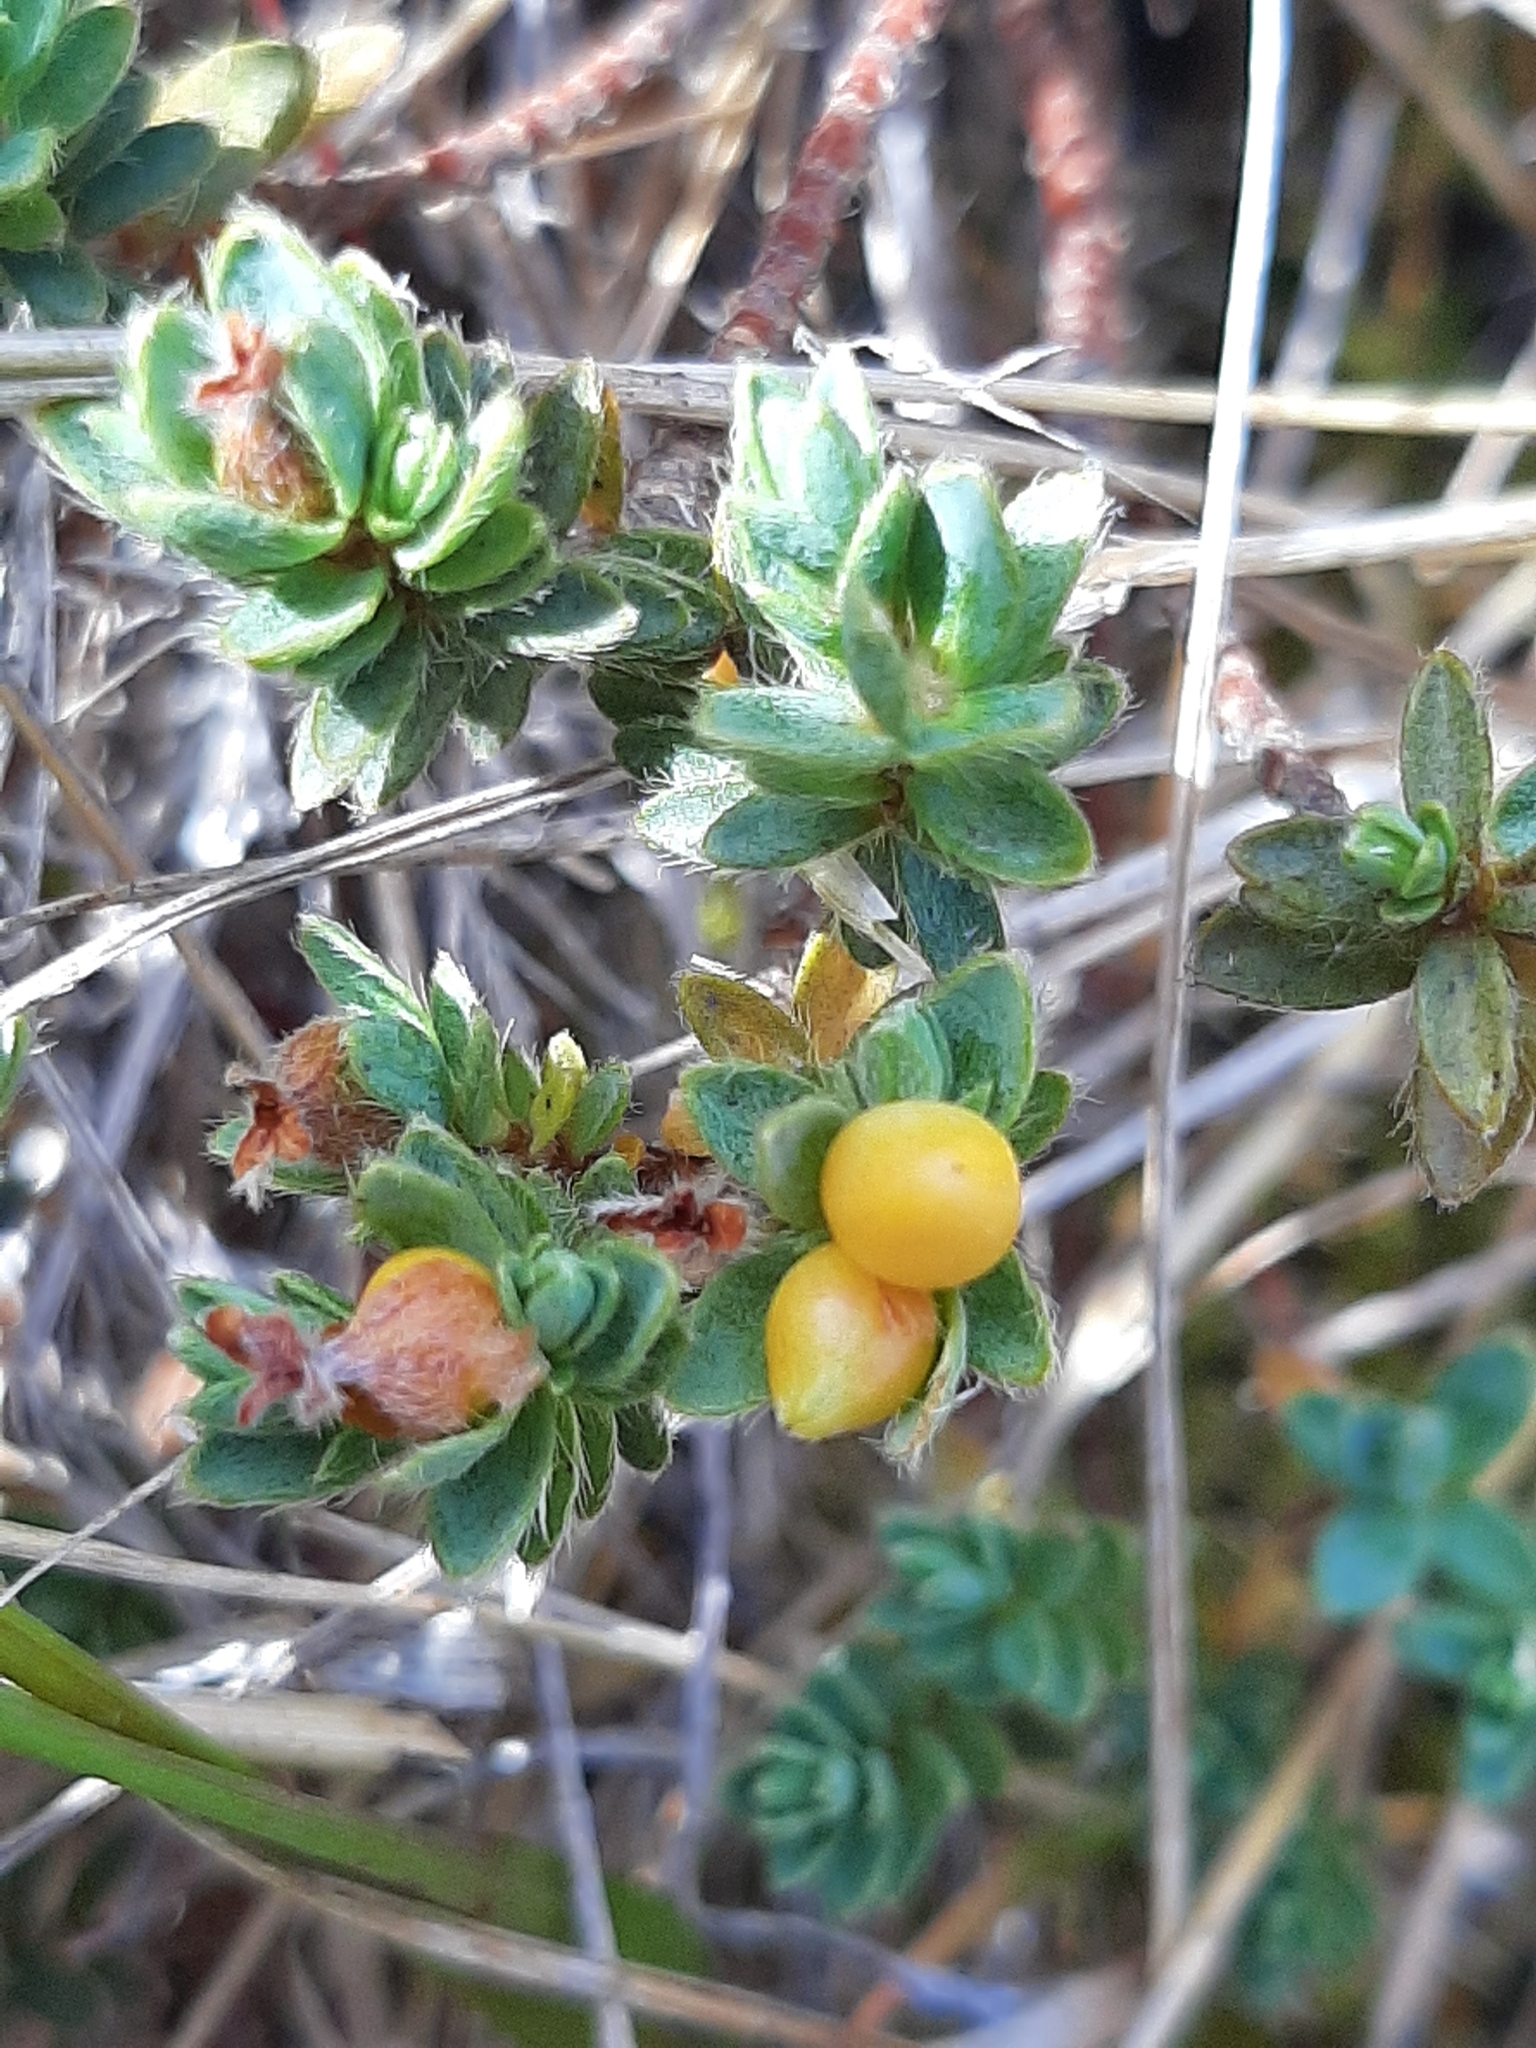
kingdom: Plantae
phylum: Tracheophyta
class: Magnoliopsida
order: Malvales
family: Thymelaeaceae
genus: Pimelea
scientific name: Pimelea mesoa
